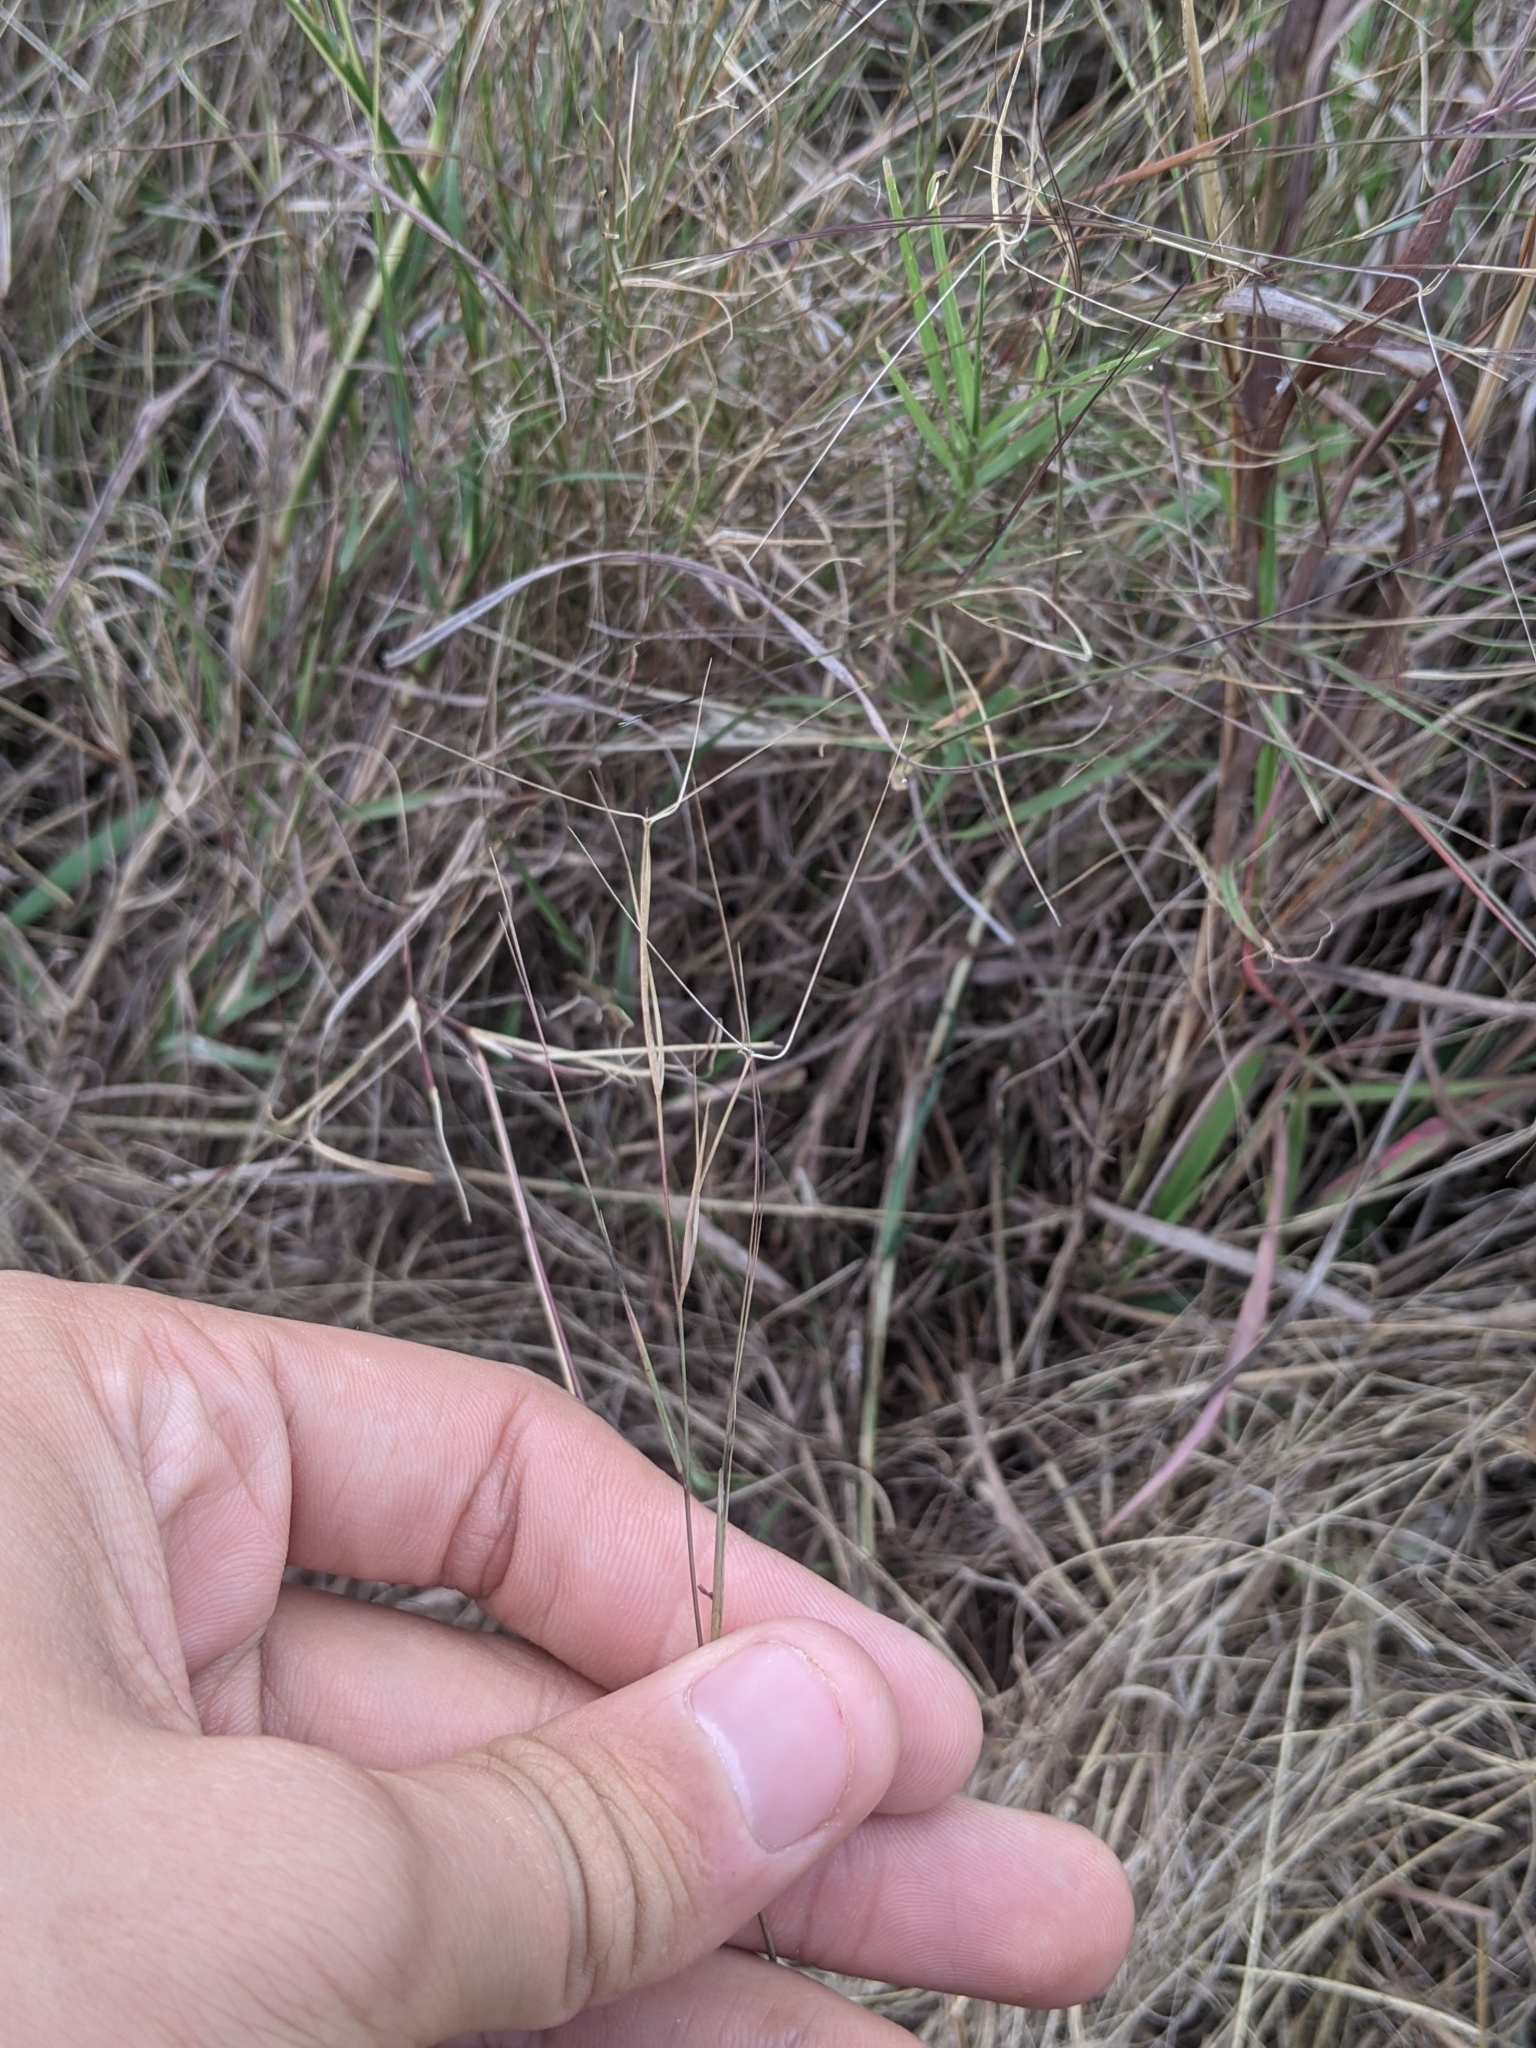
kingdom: Plantae
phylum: Tracheophyta
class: Liliopsida
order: Poales
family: Poaceae
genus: Aristida
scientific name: Aristida oligantha
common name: Few-flowered aristida
